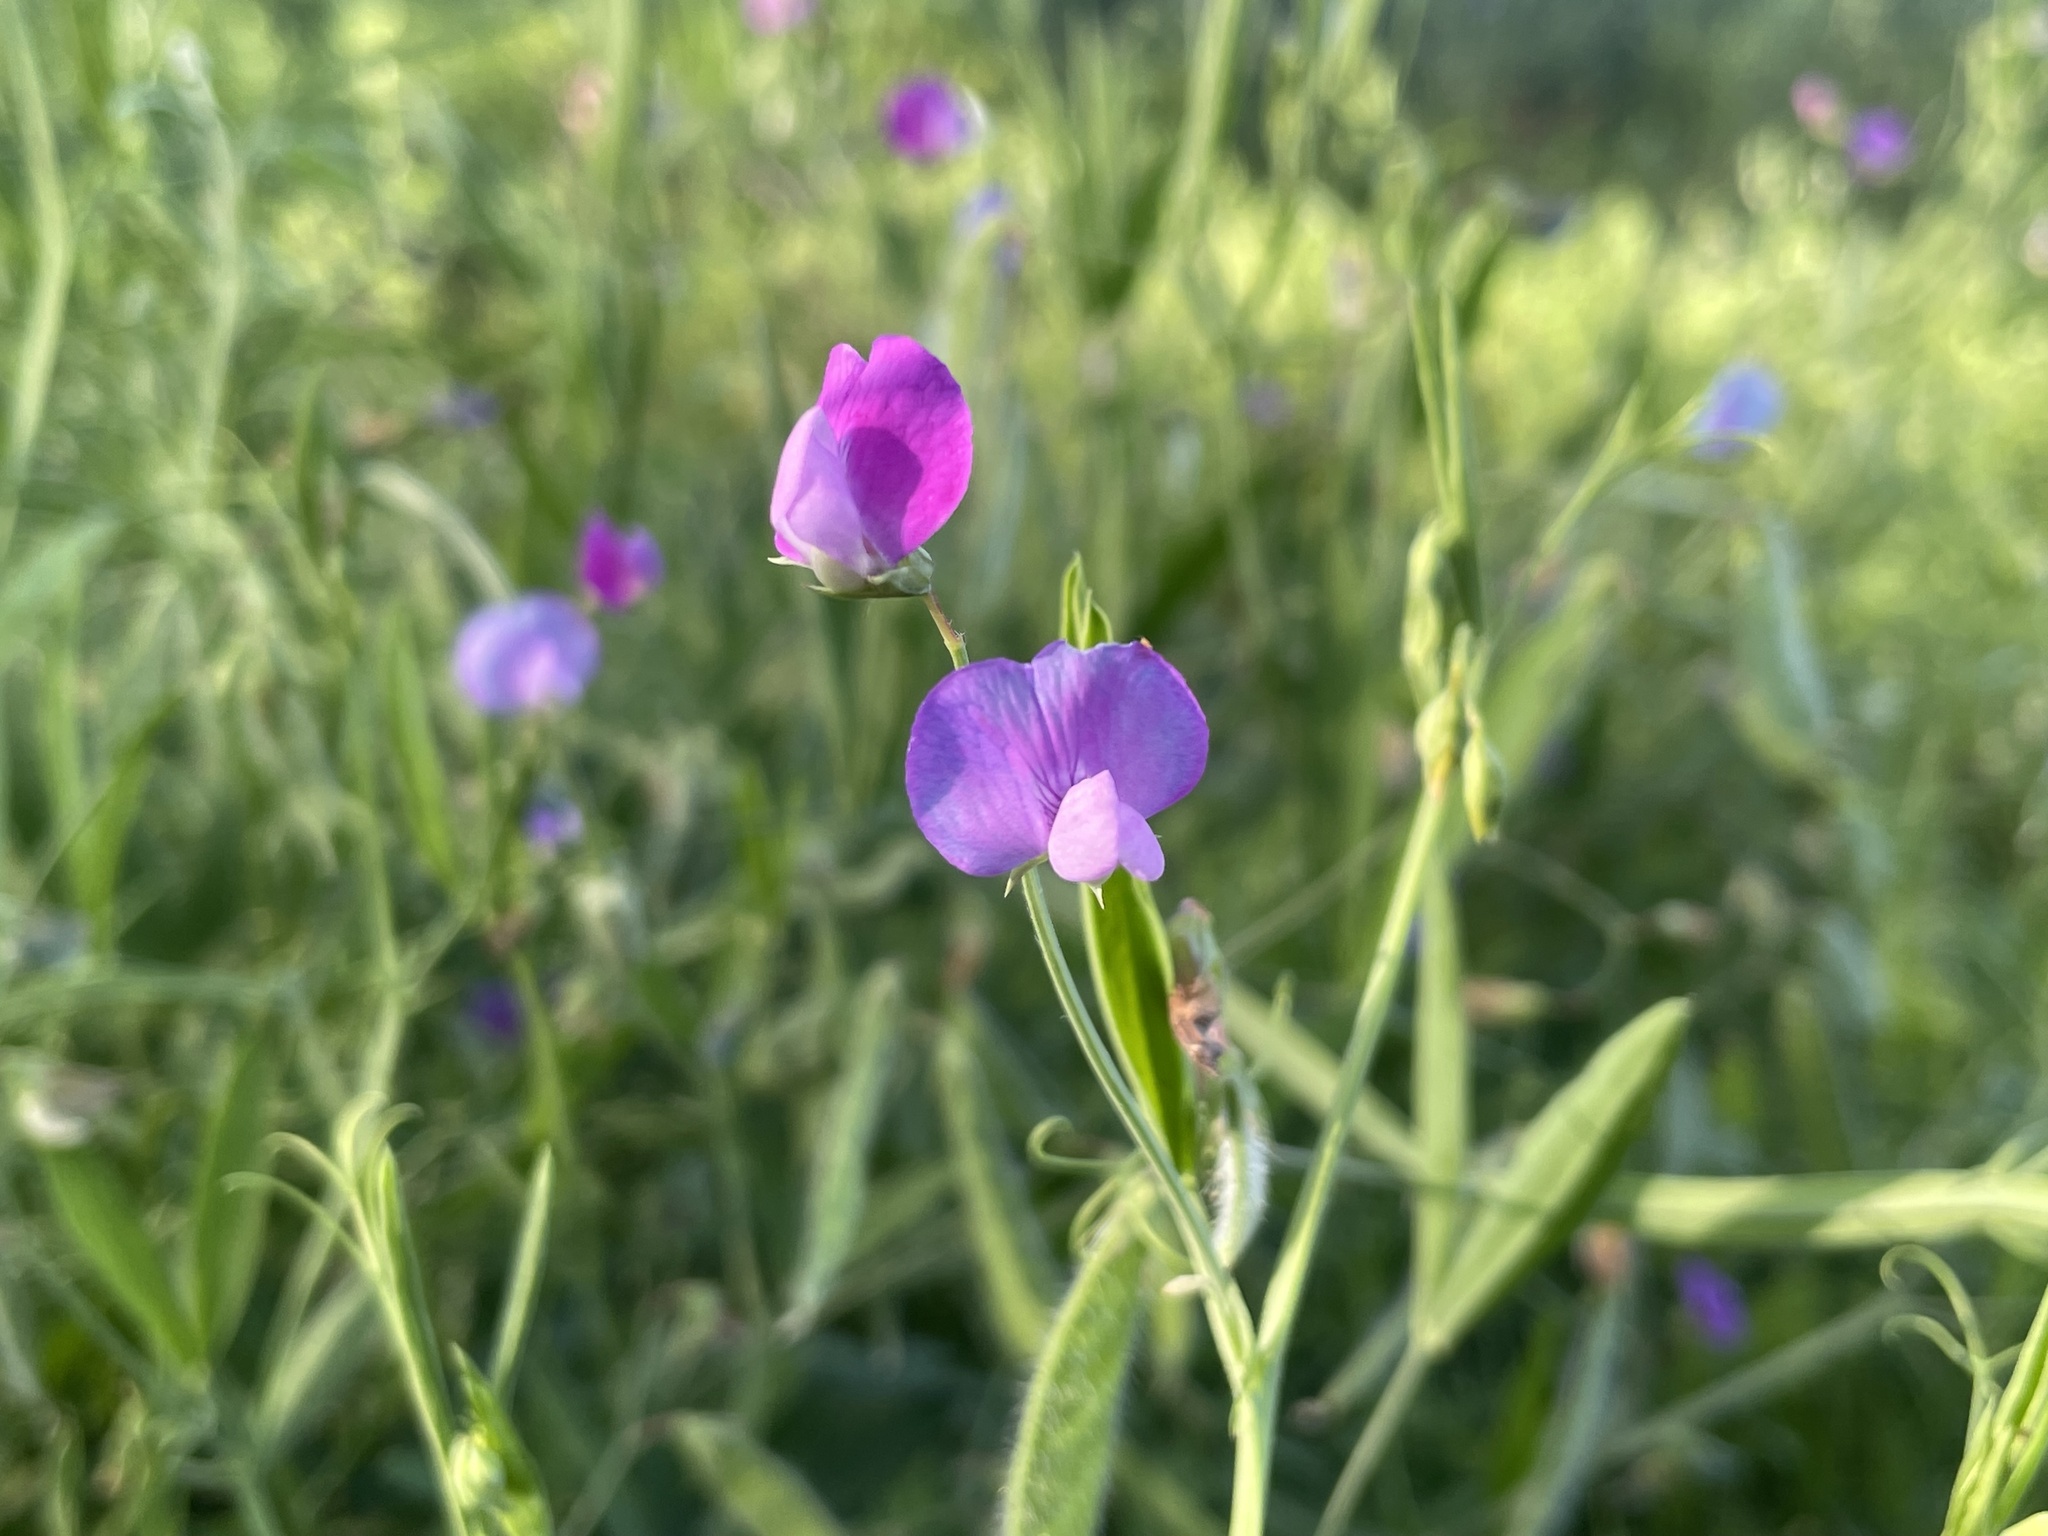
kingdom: Plantae
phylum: Tracheophyta
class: Magnoliopsida
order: Fabales
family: Fabaceae
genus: Lathyrus
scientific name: Lathyrus hirsutus
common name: Hairy vetchling
